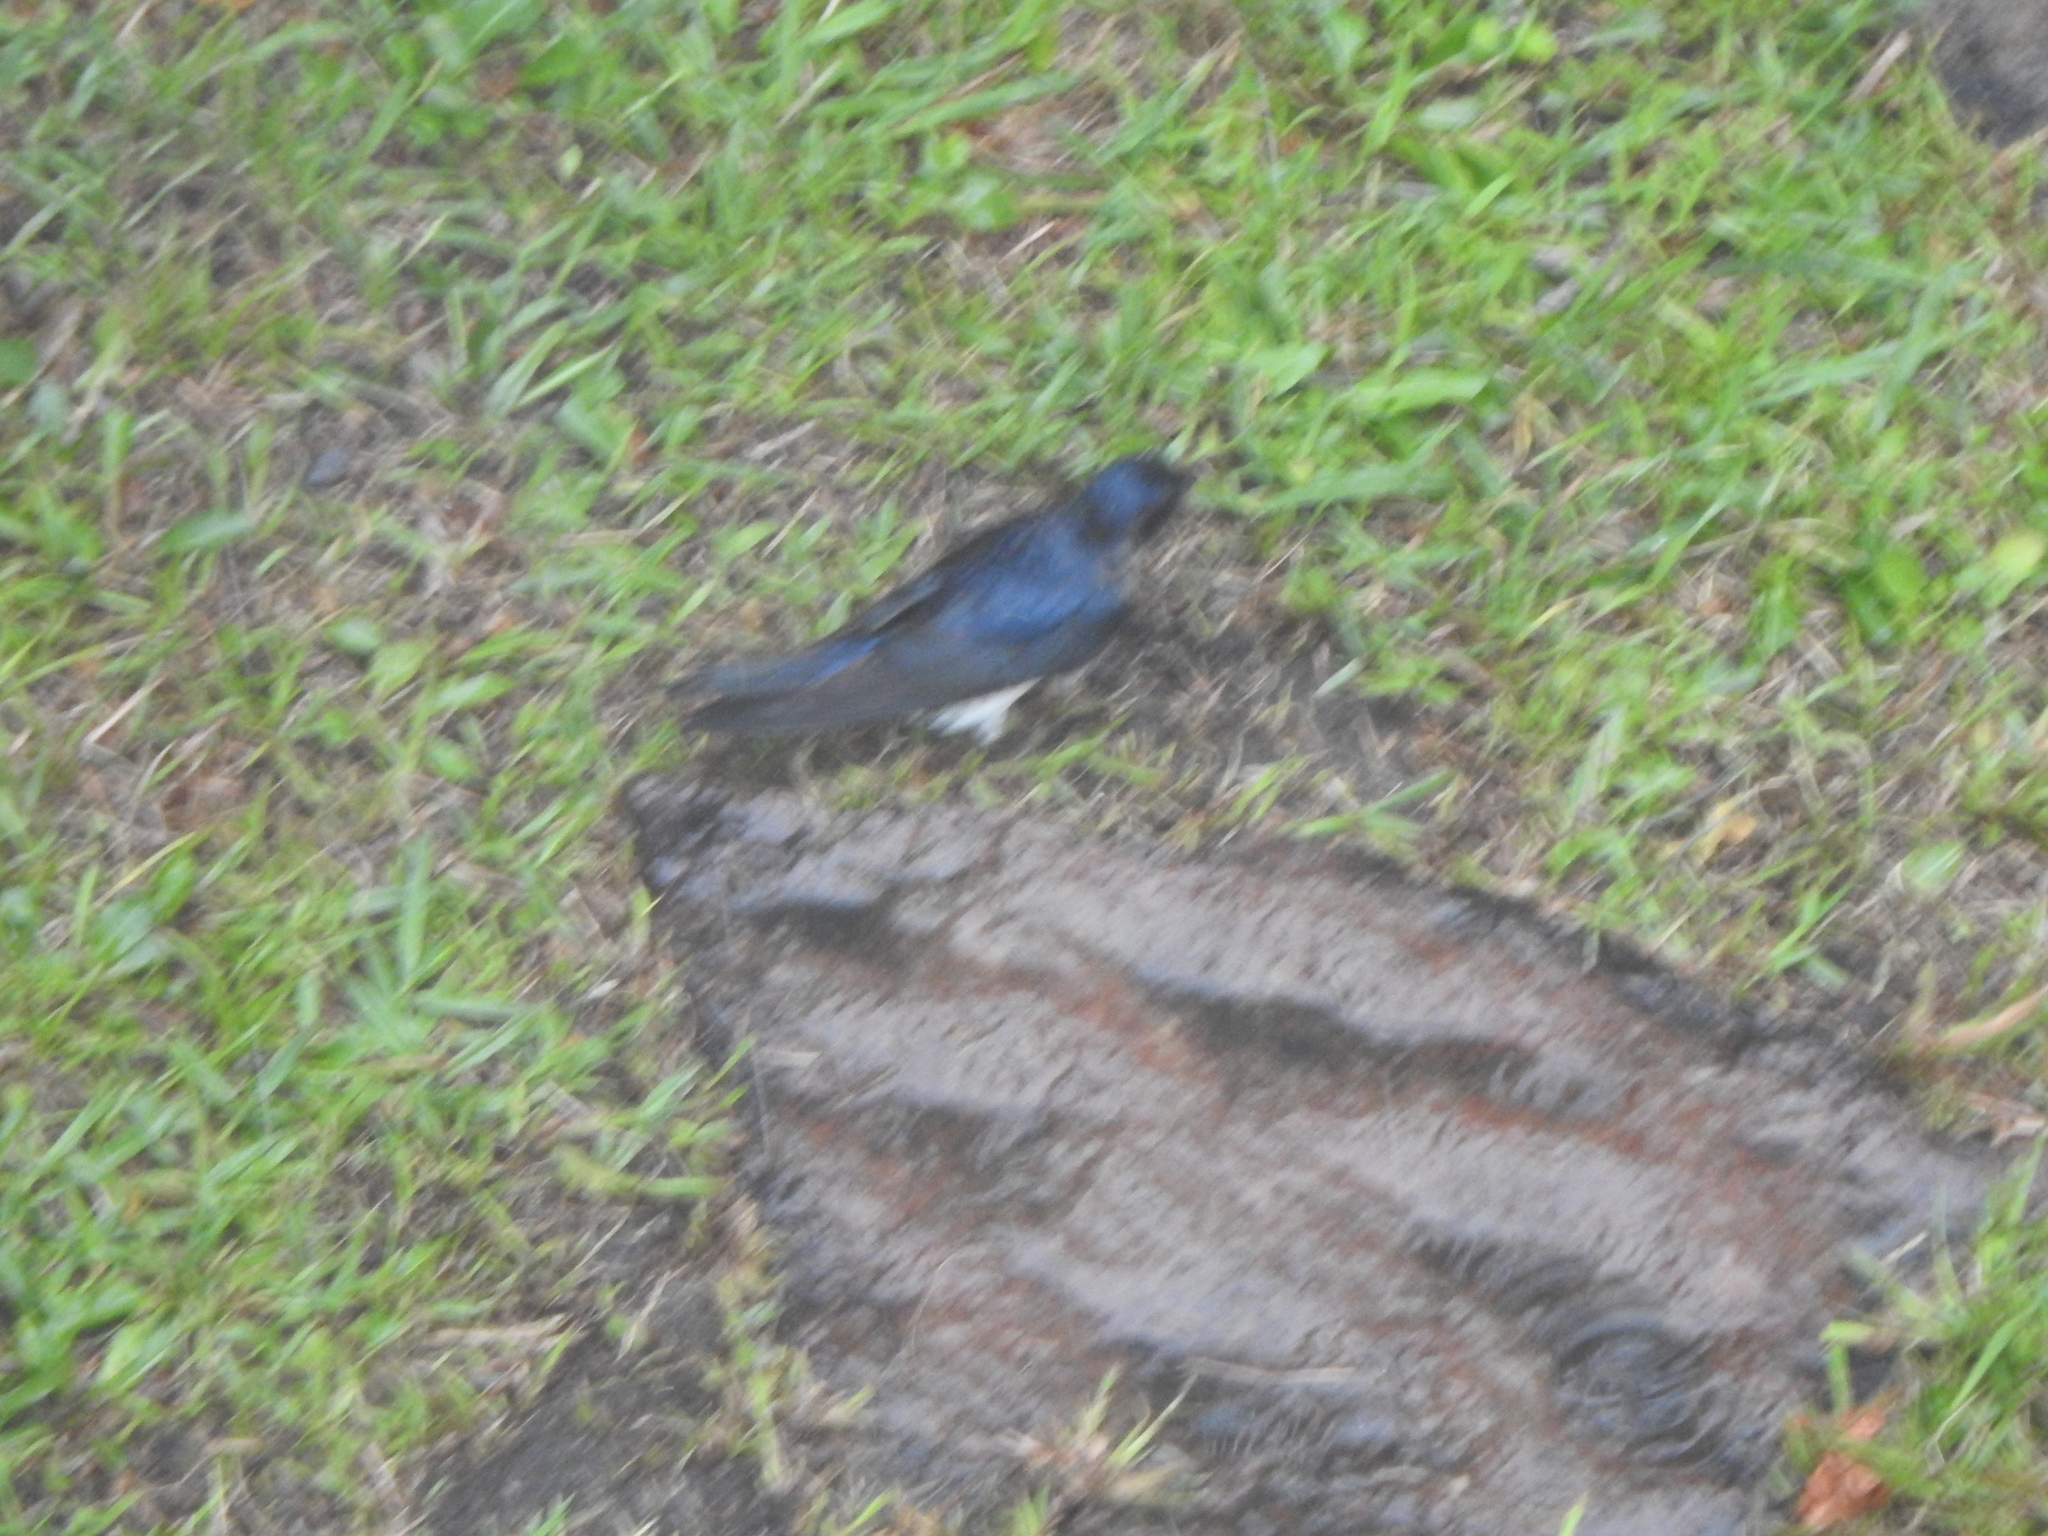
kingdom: Animalia
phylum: Chordata
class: Aves
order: Passeriformes
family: Hirundinidae
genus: Progne
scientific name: Progne chalybea
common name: Grey-breasted martin
